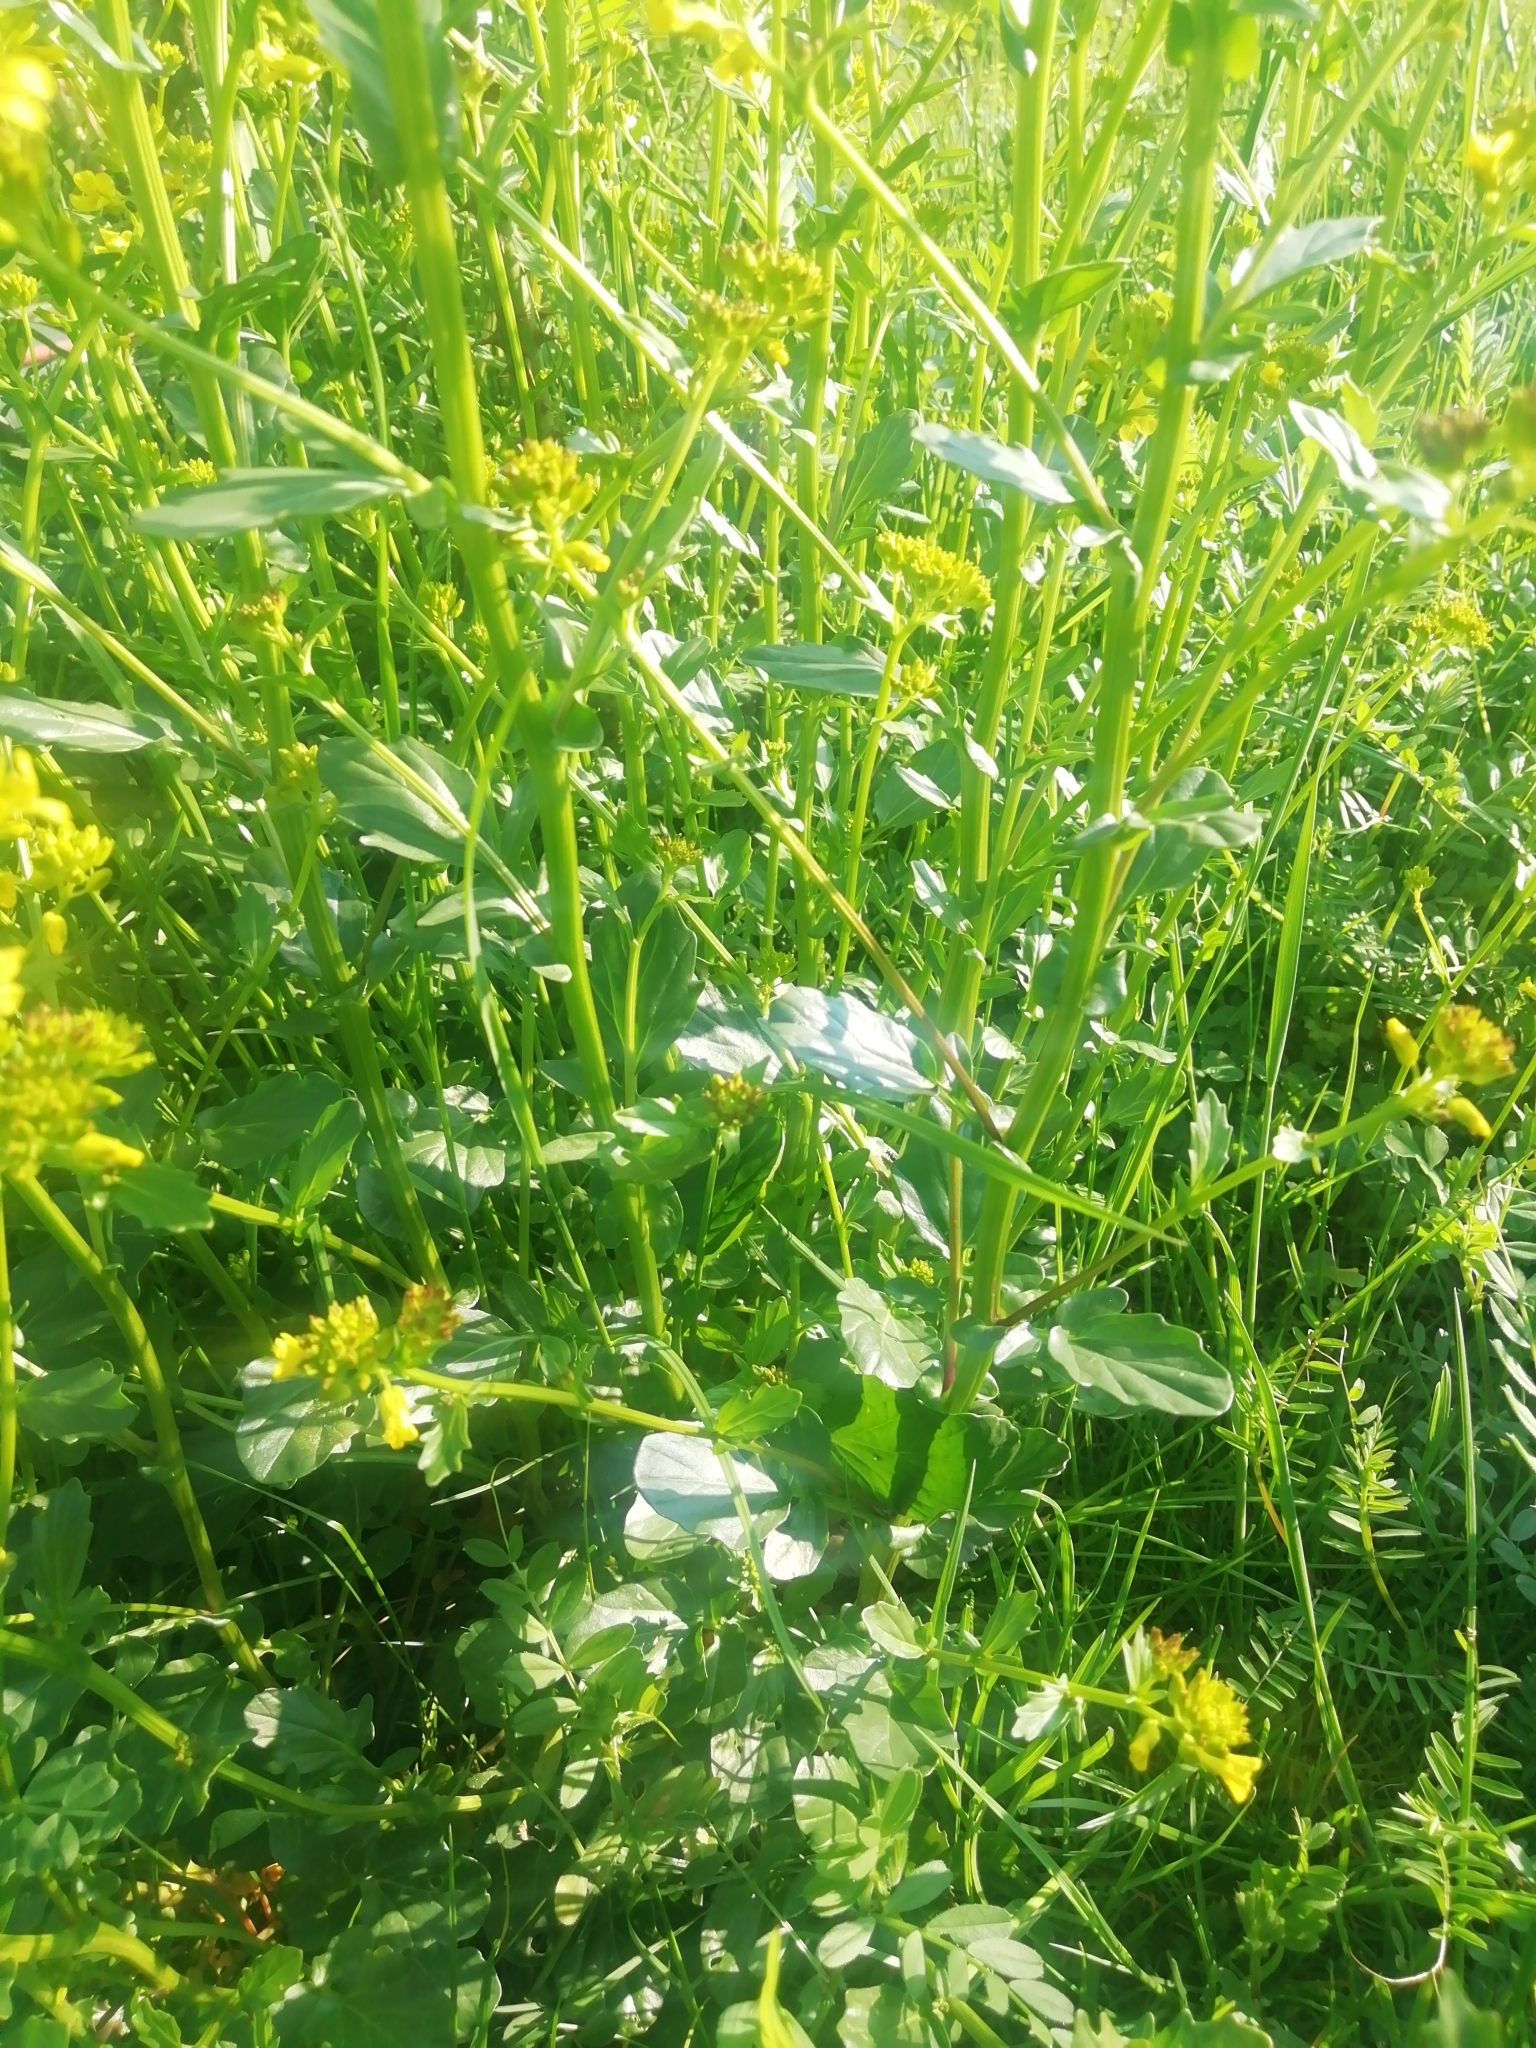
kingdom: Plantae
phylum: Tracheophyta
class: Magnoliopsida
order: Brassicales
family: Brassicaceae
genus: Barbarea
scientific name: Barbarea vulgaris
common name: Cressy-greens
